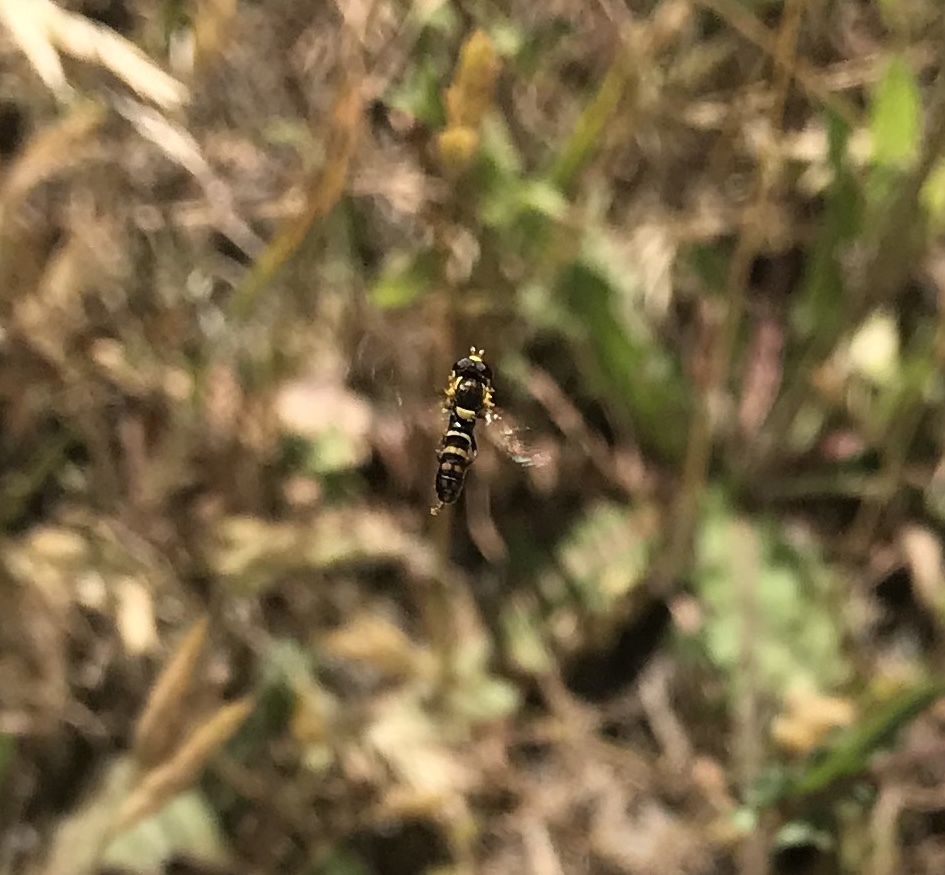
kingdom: Animalia
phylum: Arthropoda
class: Insecta
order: Diptera
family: Syrphidae
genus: Sphaerophoria
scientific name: Sphaerophoria sulphuripes
